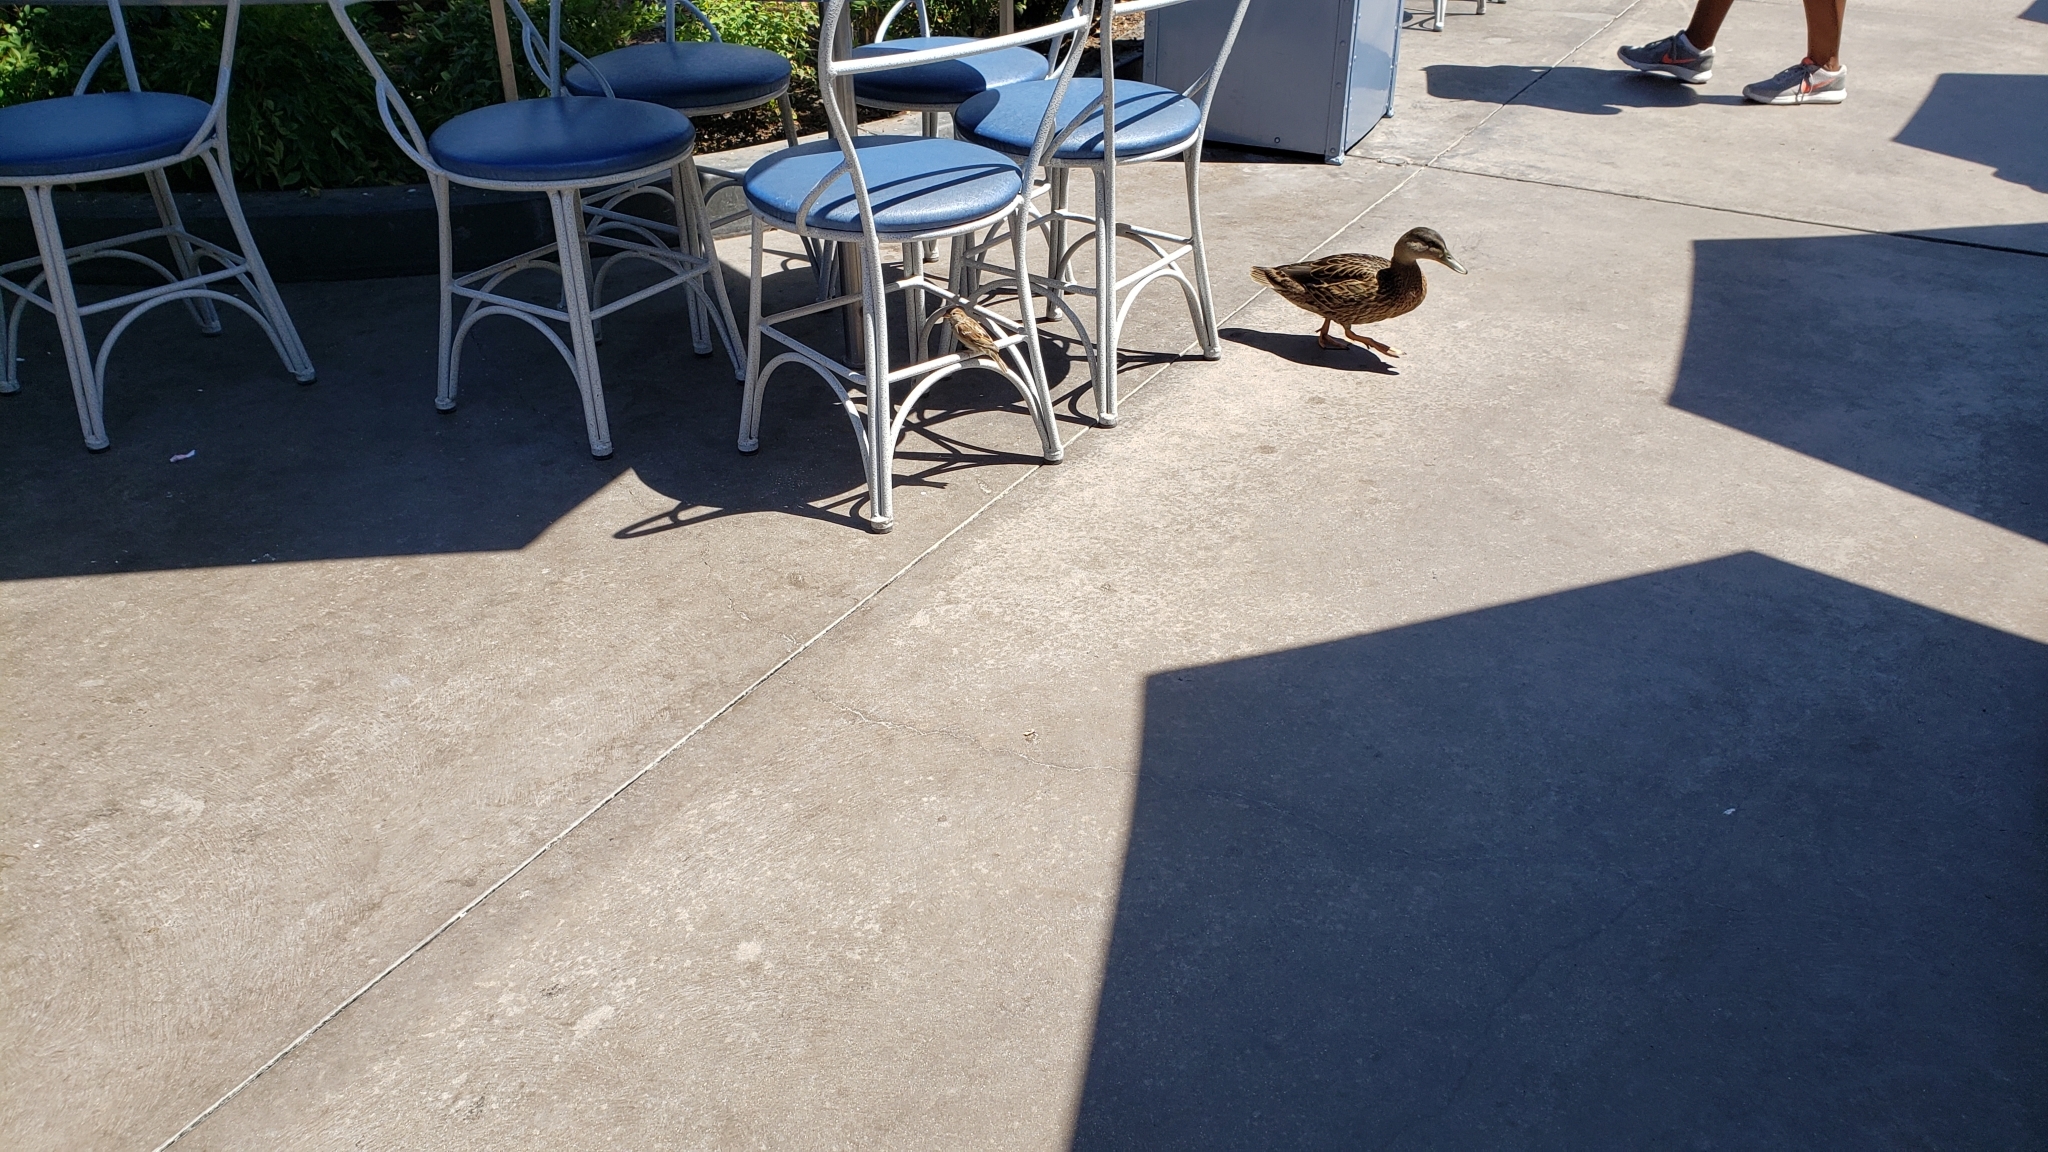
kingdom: Animalia
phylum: Chordata
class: Aves
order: Passeriformes
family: Passeridae
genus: Passer
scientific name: Passer domesticus
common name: House sparrow
